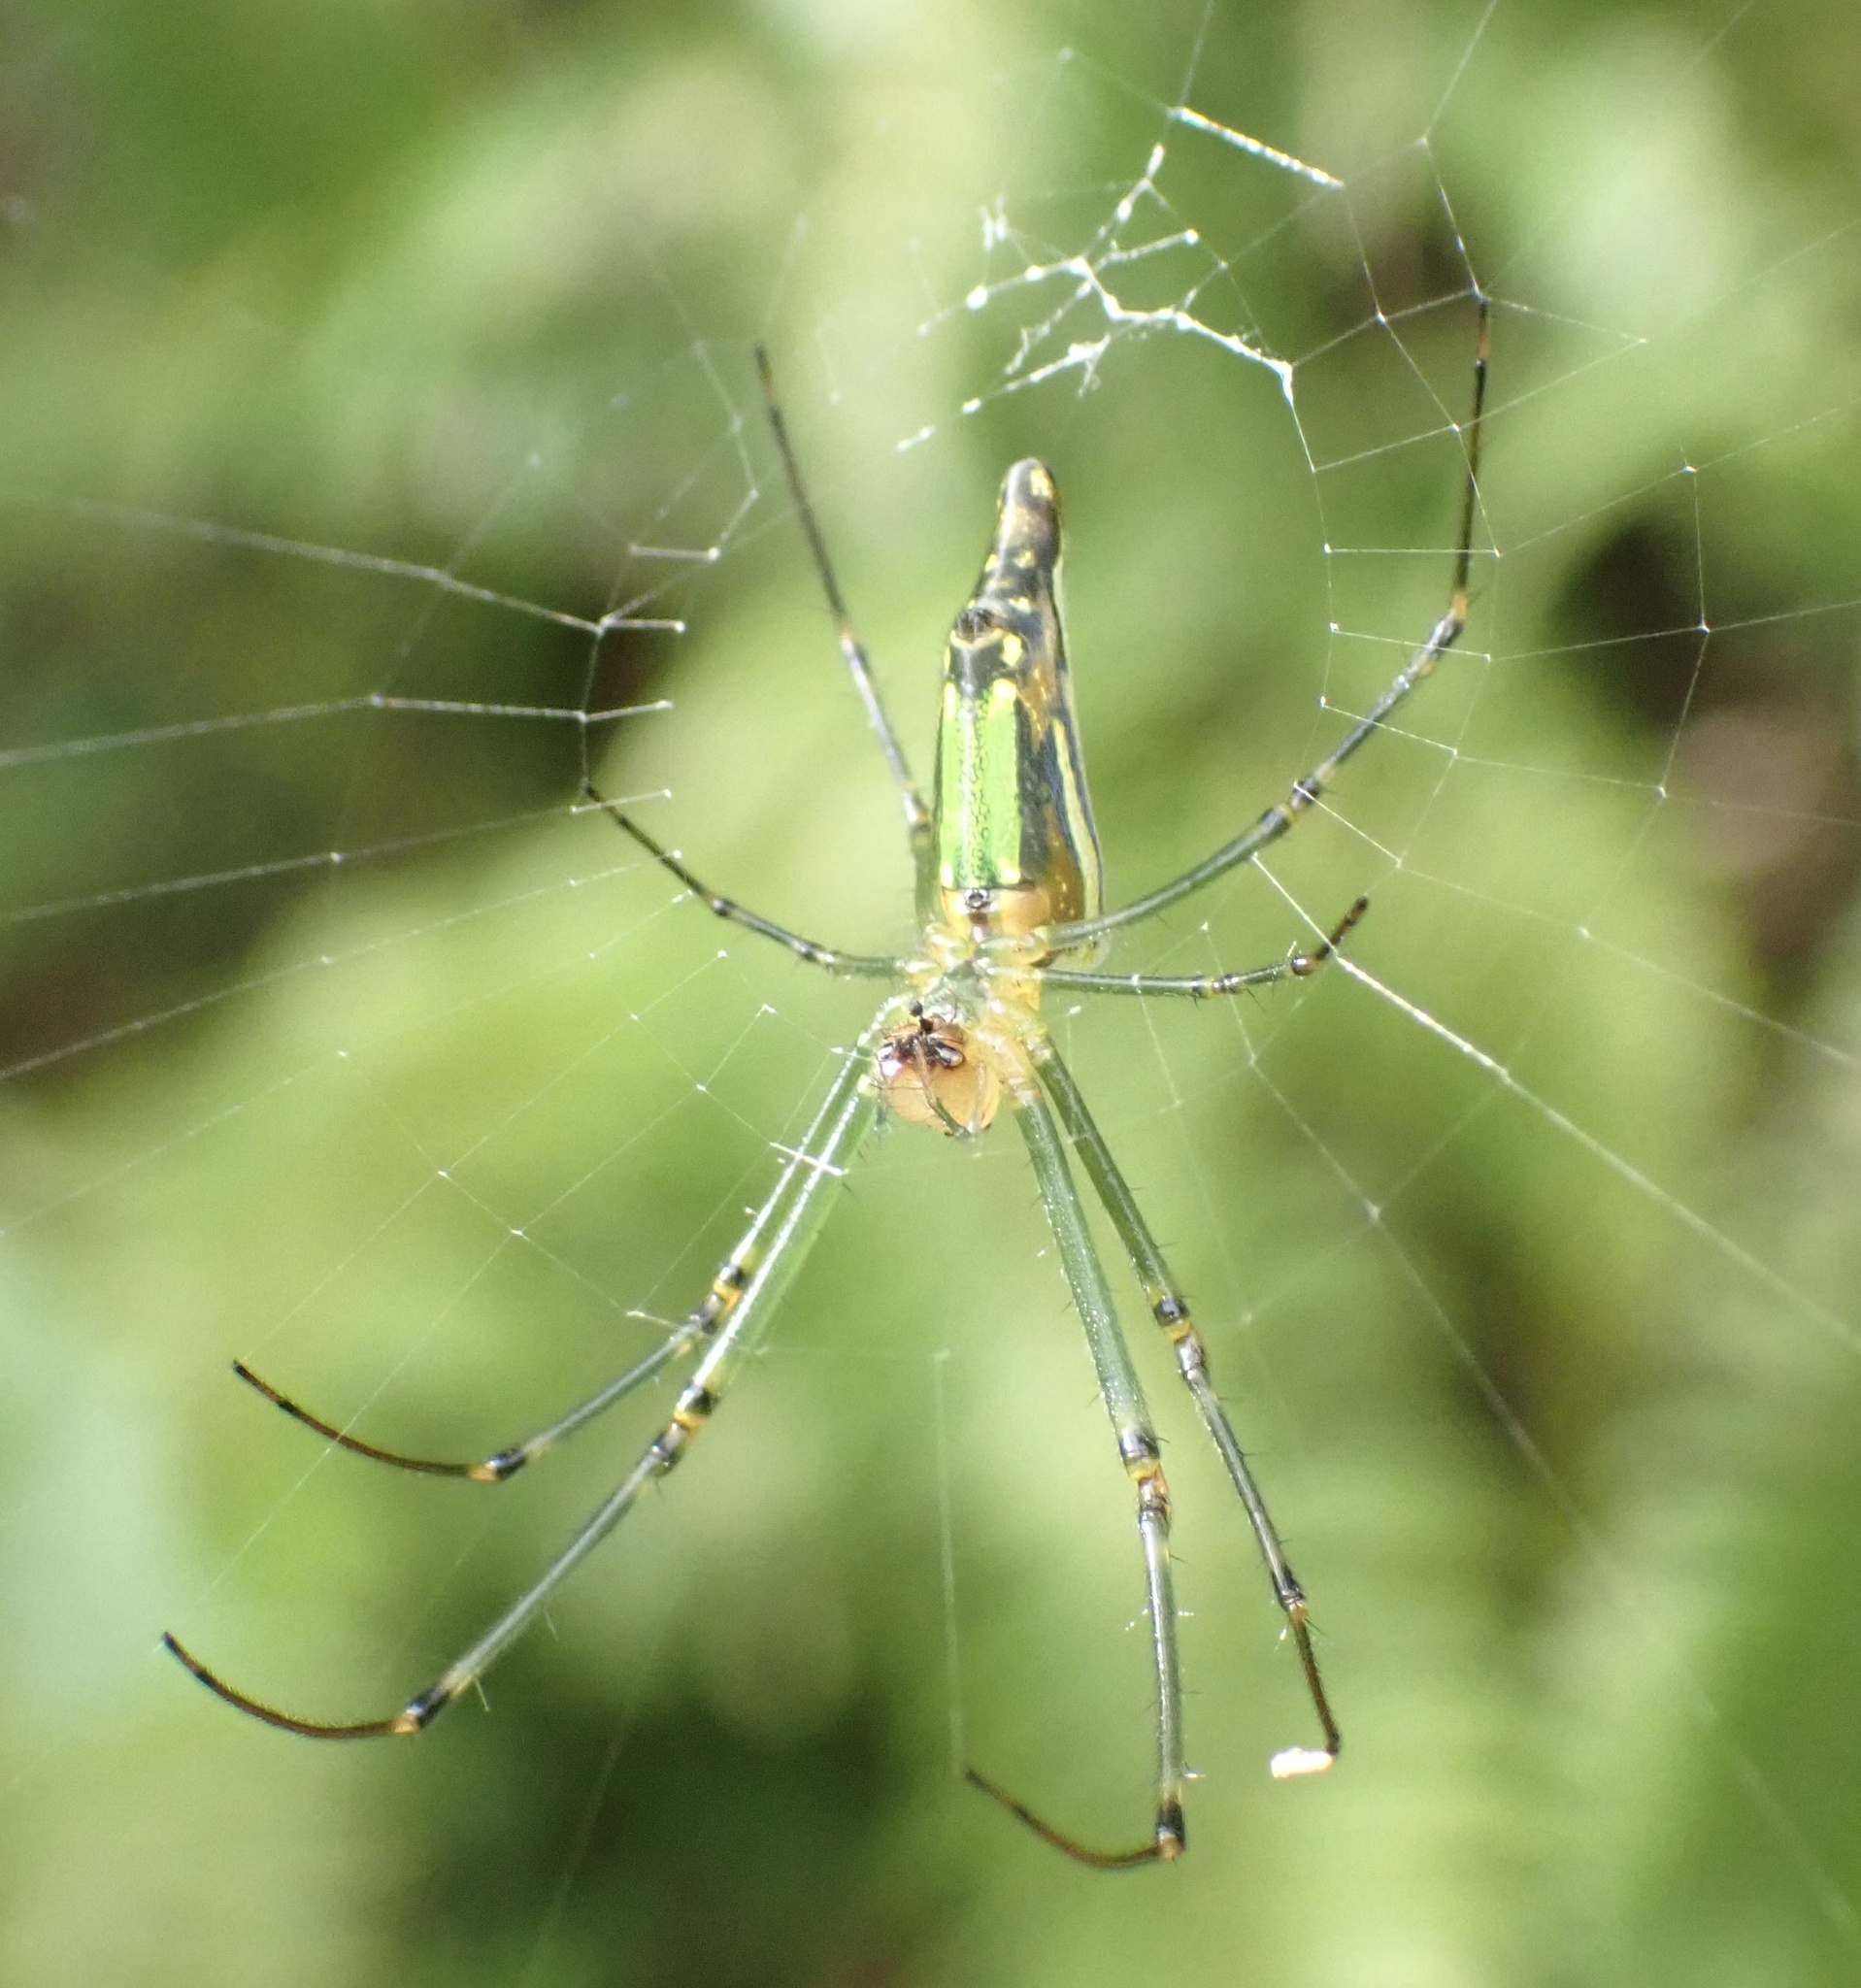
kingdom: Animalia
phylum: Arthropoda
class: Arachnida
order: Araneae
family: Tetragnathidae
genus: Leucauge
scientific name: Leucauge decorata
